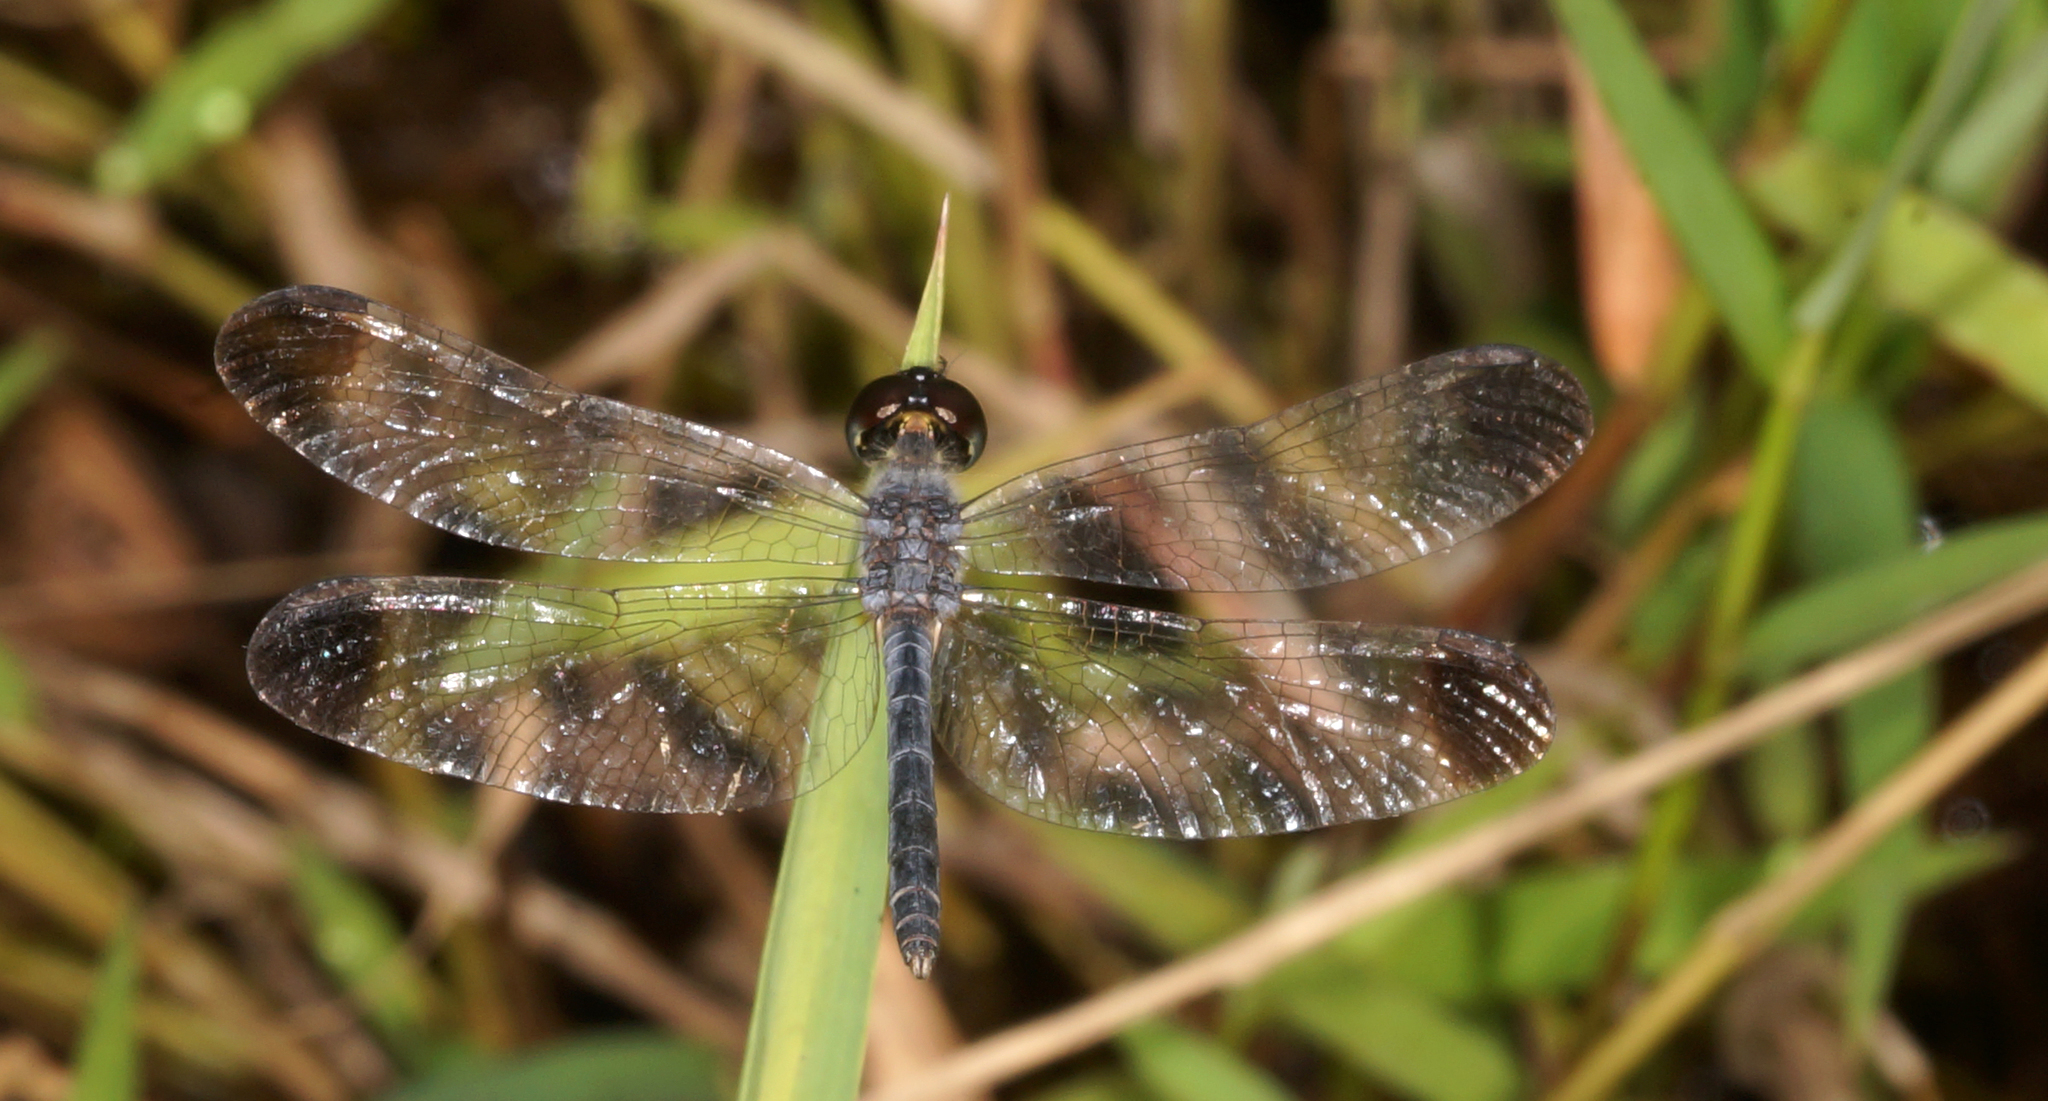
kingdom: Animalia
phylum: Arthropoda
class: Insecta
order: Odonata
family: Libellulidae
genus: Diplacodes
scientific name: Diplacodes nebulosa
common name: Black-tipped percher
